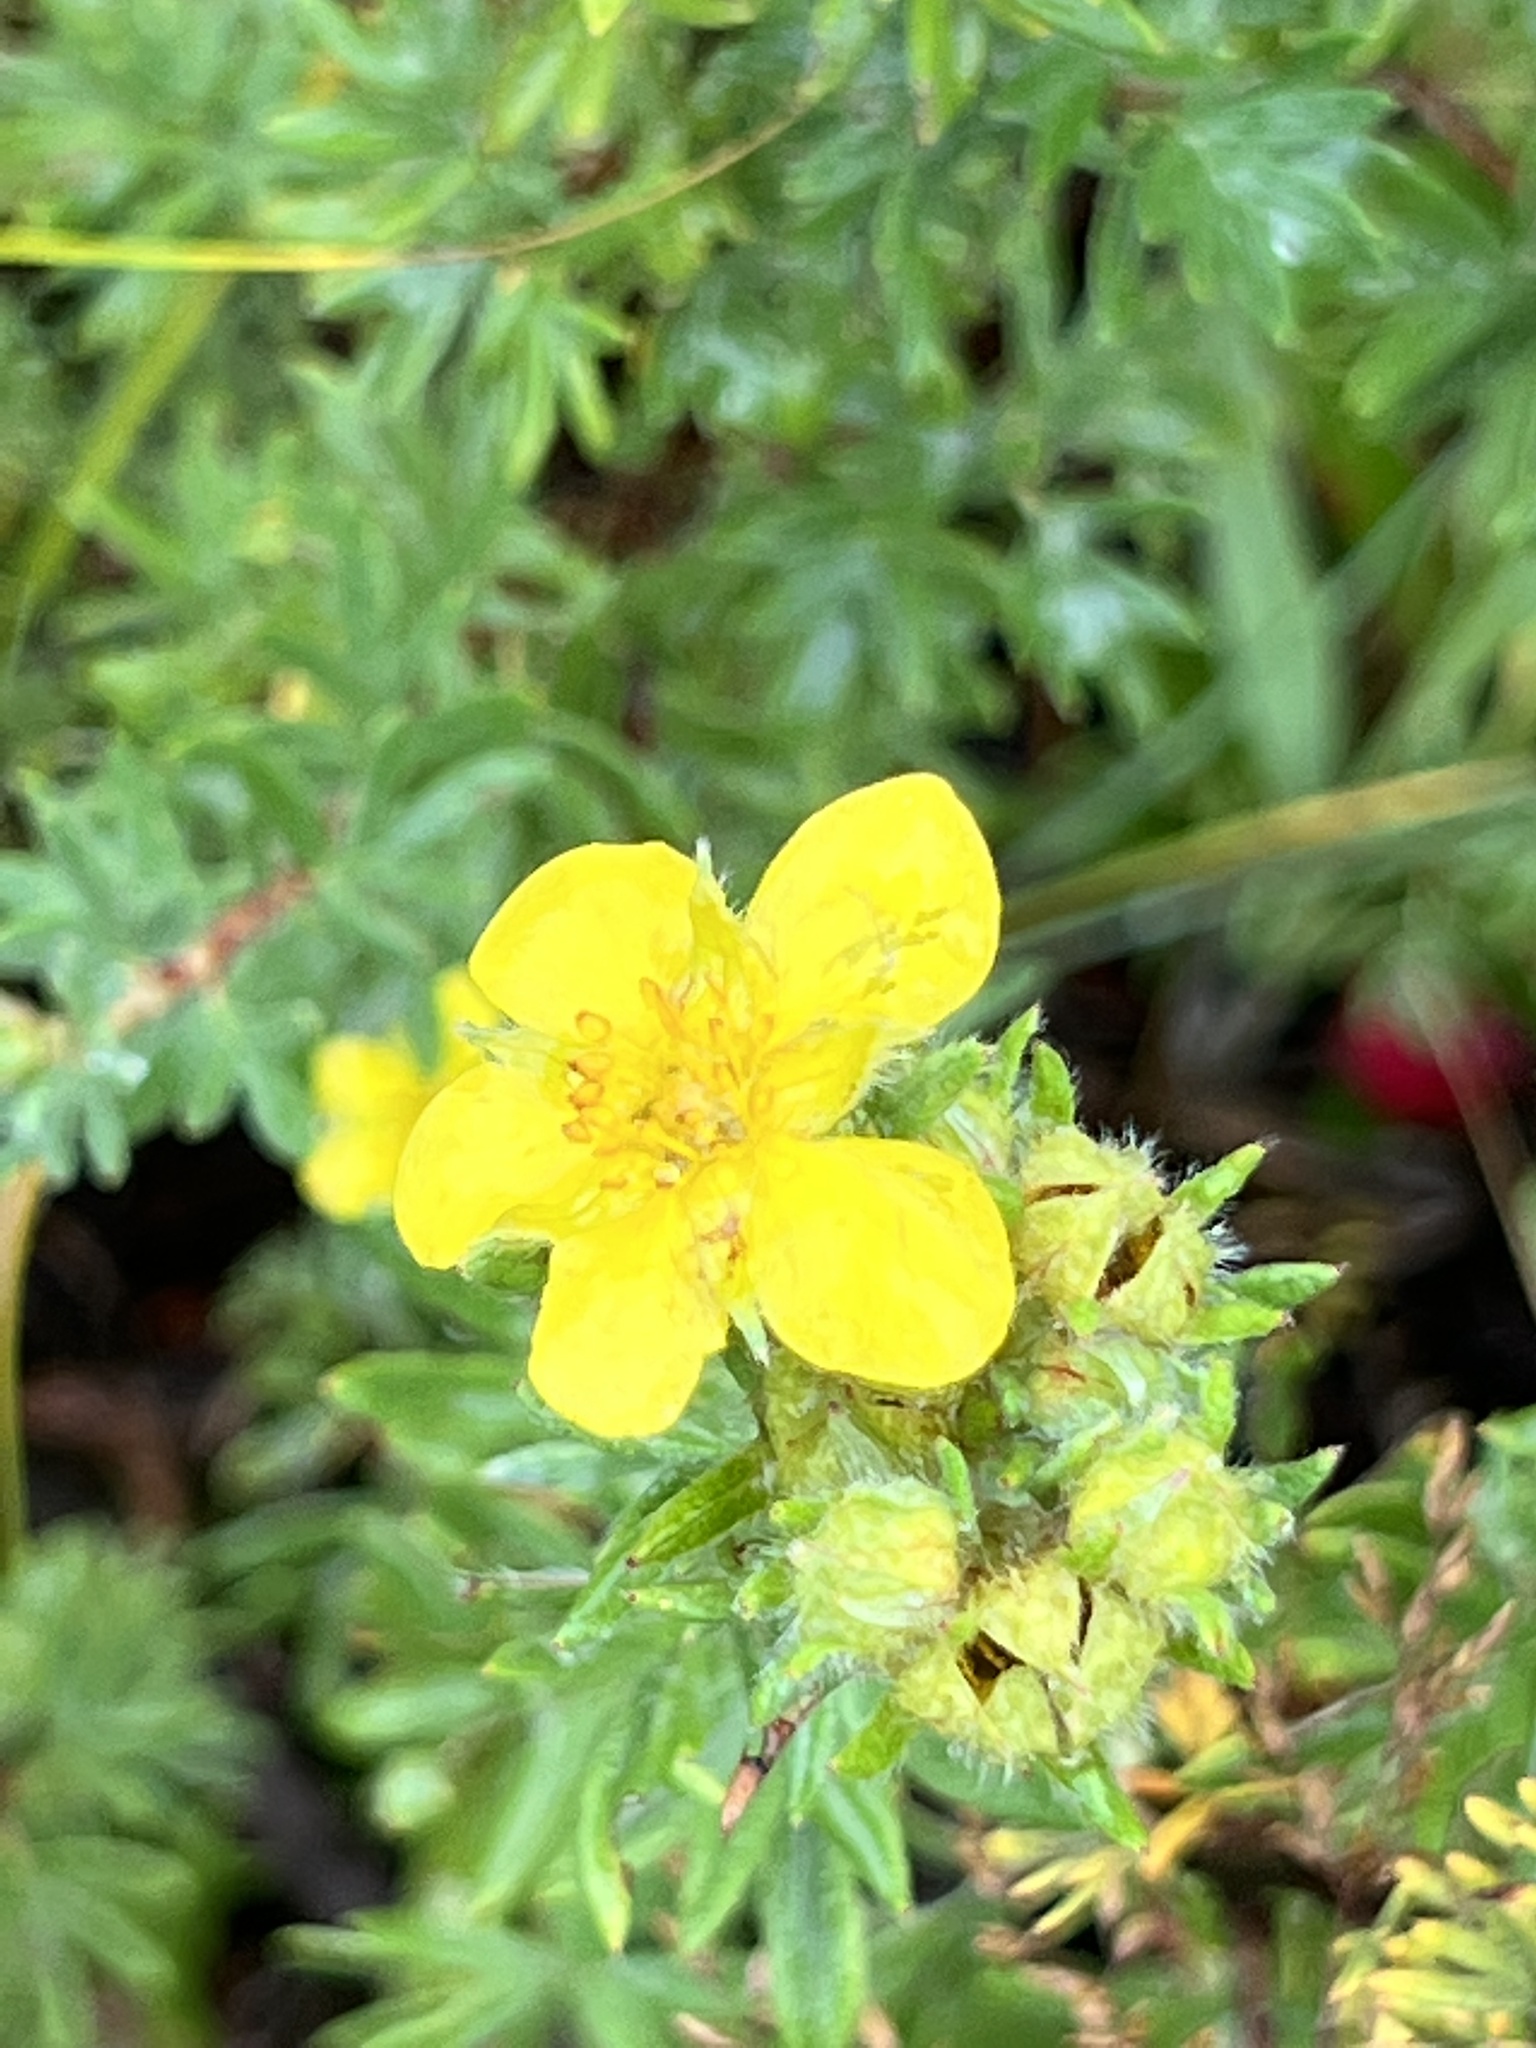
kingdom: Plantae
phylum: Tracheophyta
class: Magnoliopsida
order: Rosales
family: Rosaceae
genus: Dasiphora
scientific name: Dasiphora fruticosa
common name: Shrubby cinquefoil
